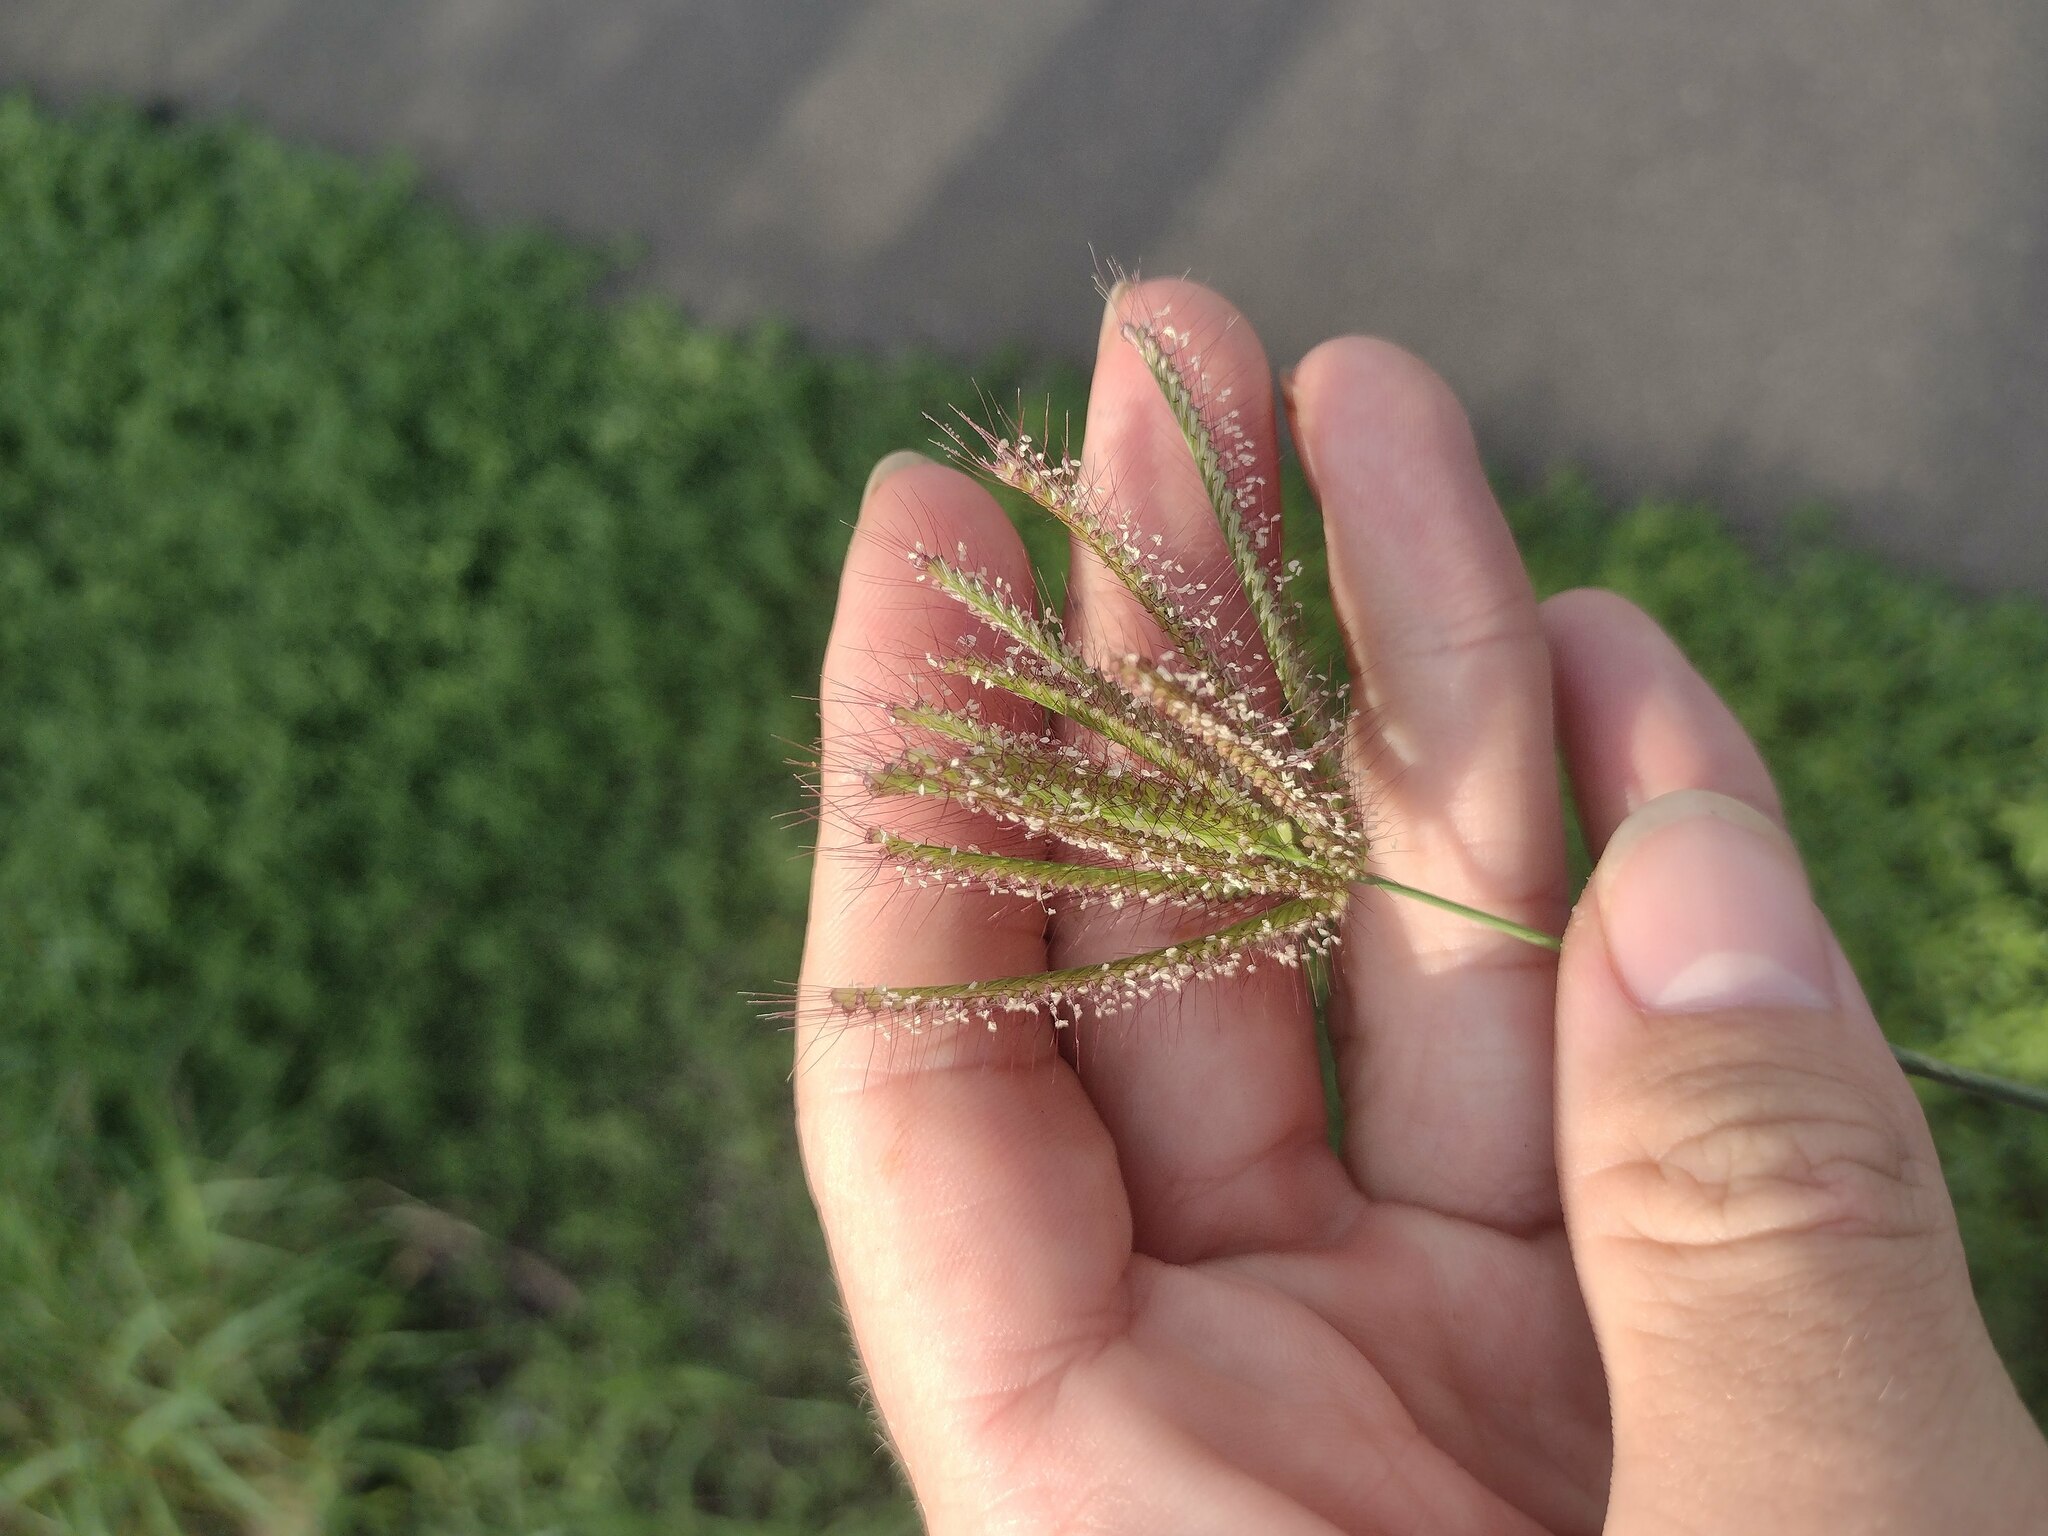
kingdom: Plantae
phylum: Tracheophyta
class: Liliopsida
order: Poales
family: Poaceae
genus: Chloris
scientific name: Chloris barbata
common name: Swollen fingergrass
